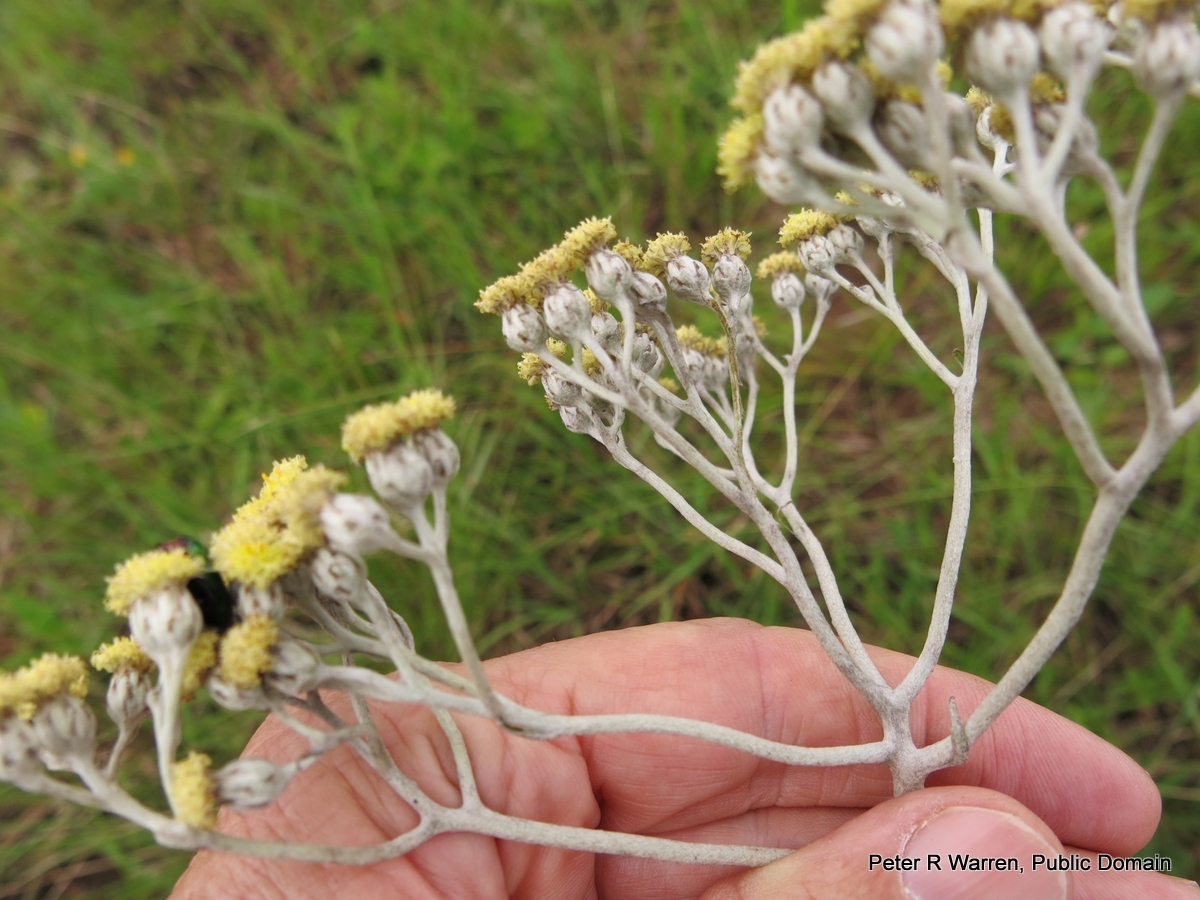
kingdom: Plantae
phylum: Tracheophyta
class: Magnoliopsida
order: Asterales
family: Asteraceae
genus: Helichrysum
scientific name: Helichrysum nudifolium
